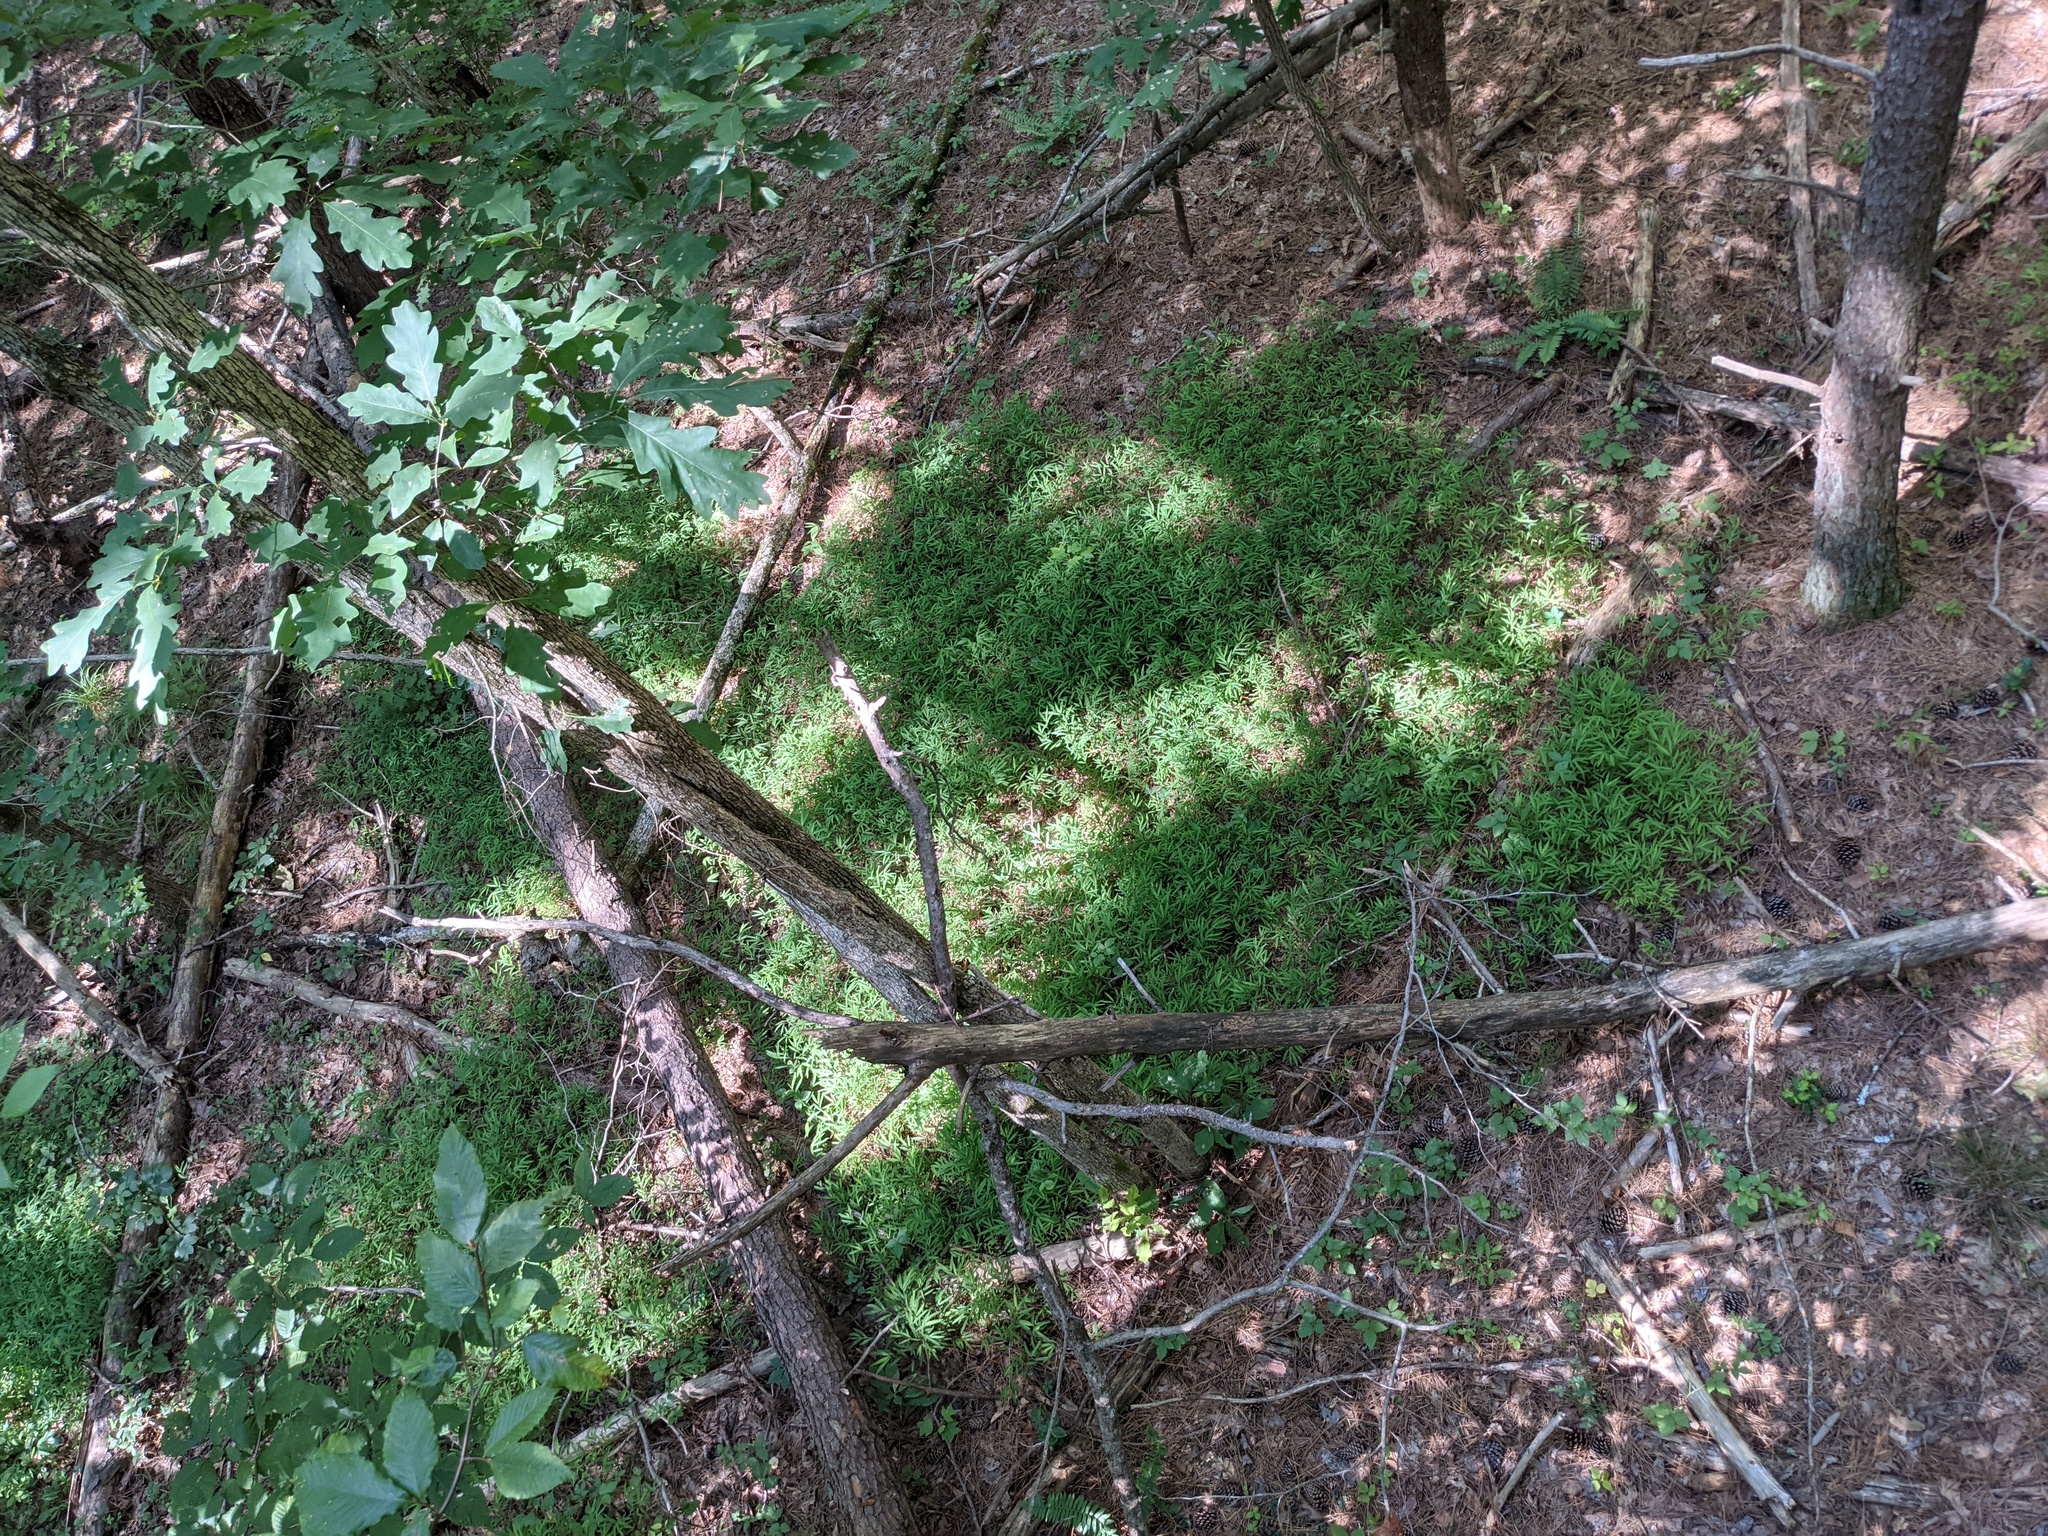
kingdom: Plantae
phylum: Tracheophyta
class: Liliopsida
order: Poales
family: Poaceae
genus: Microstegium
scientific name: Microstegium vimineum
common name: Japanese stiltgrass
